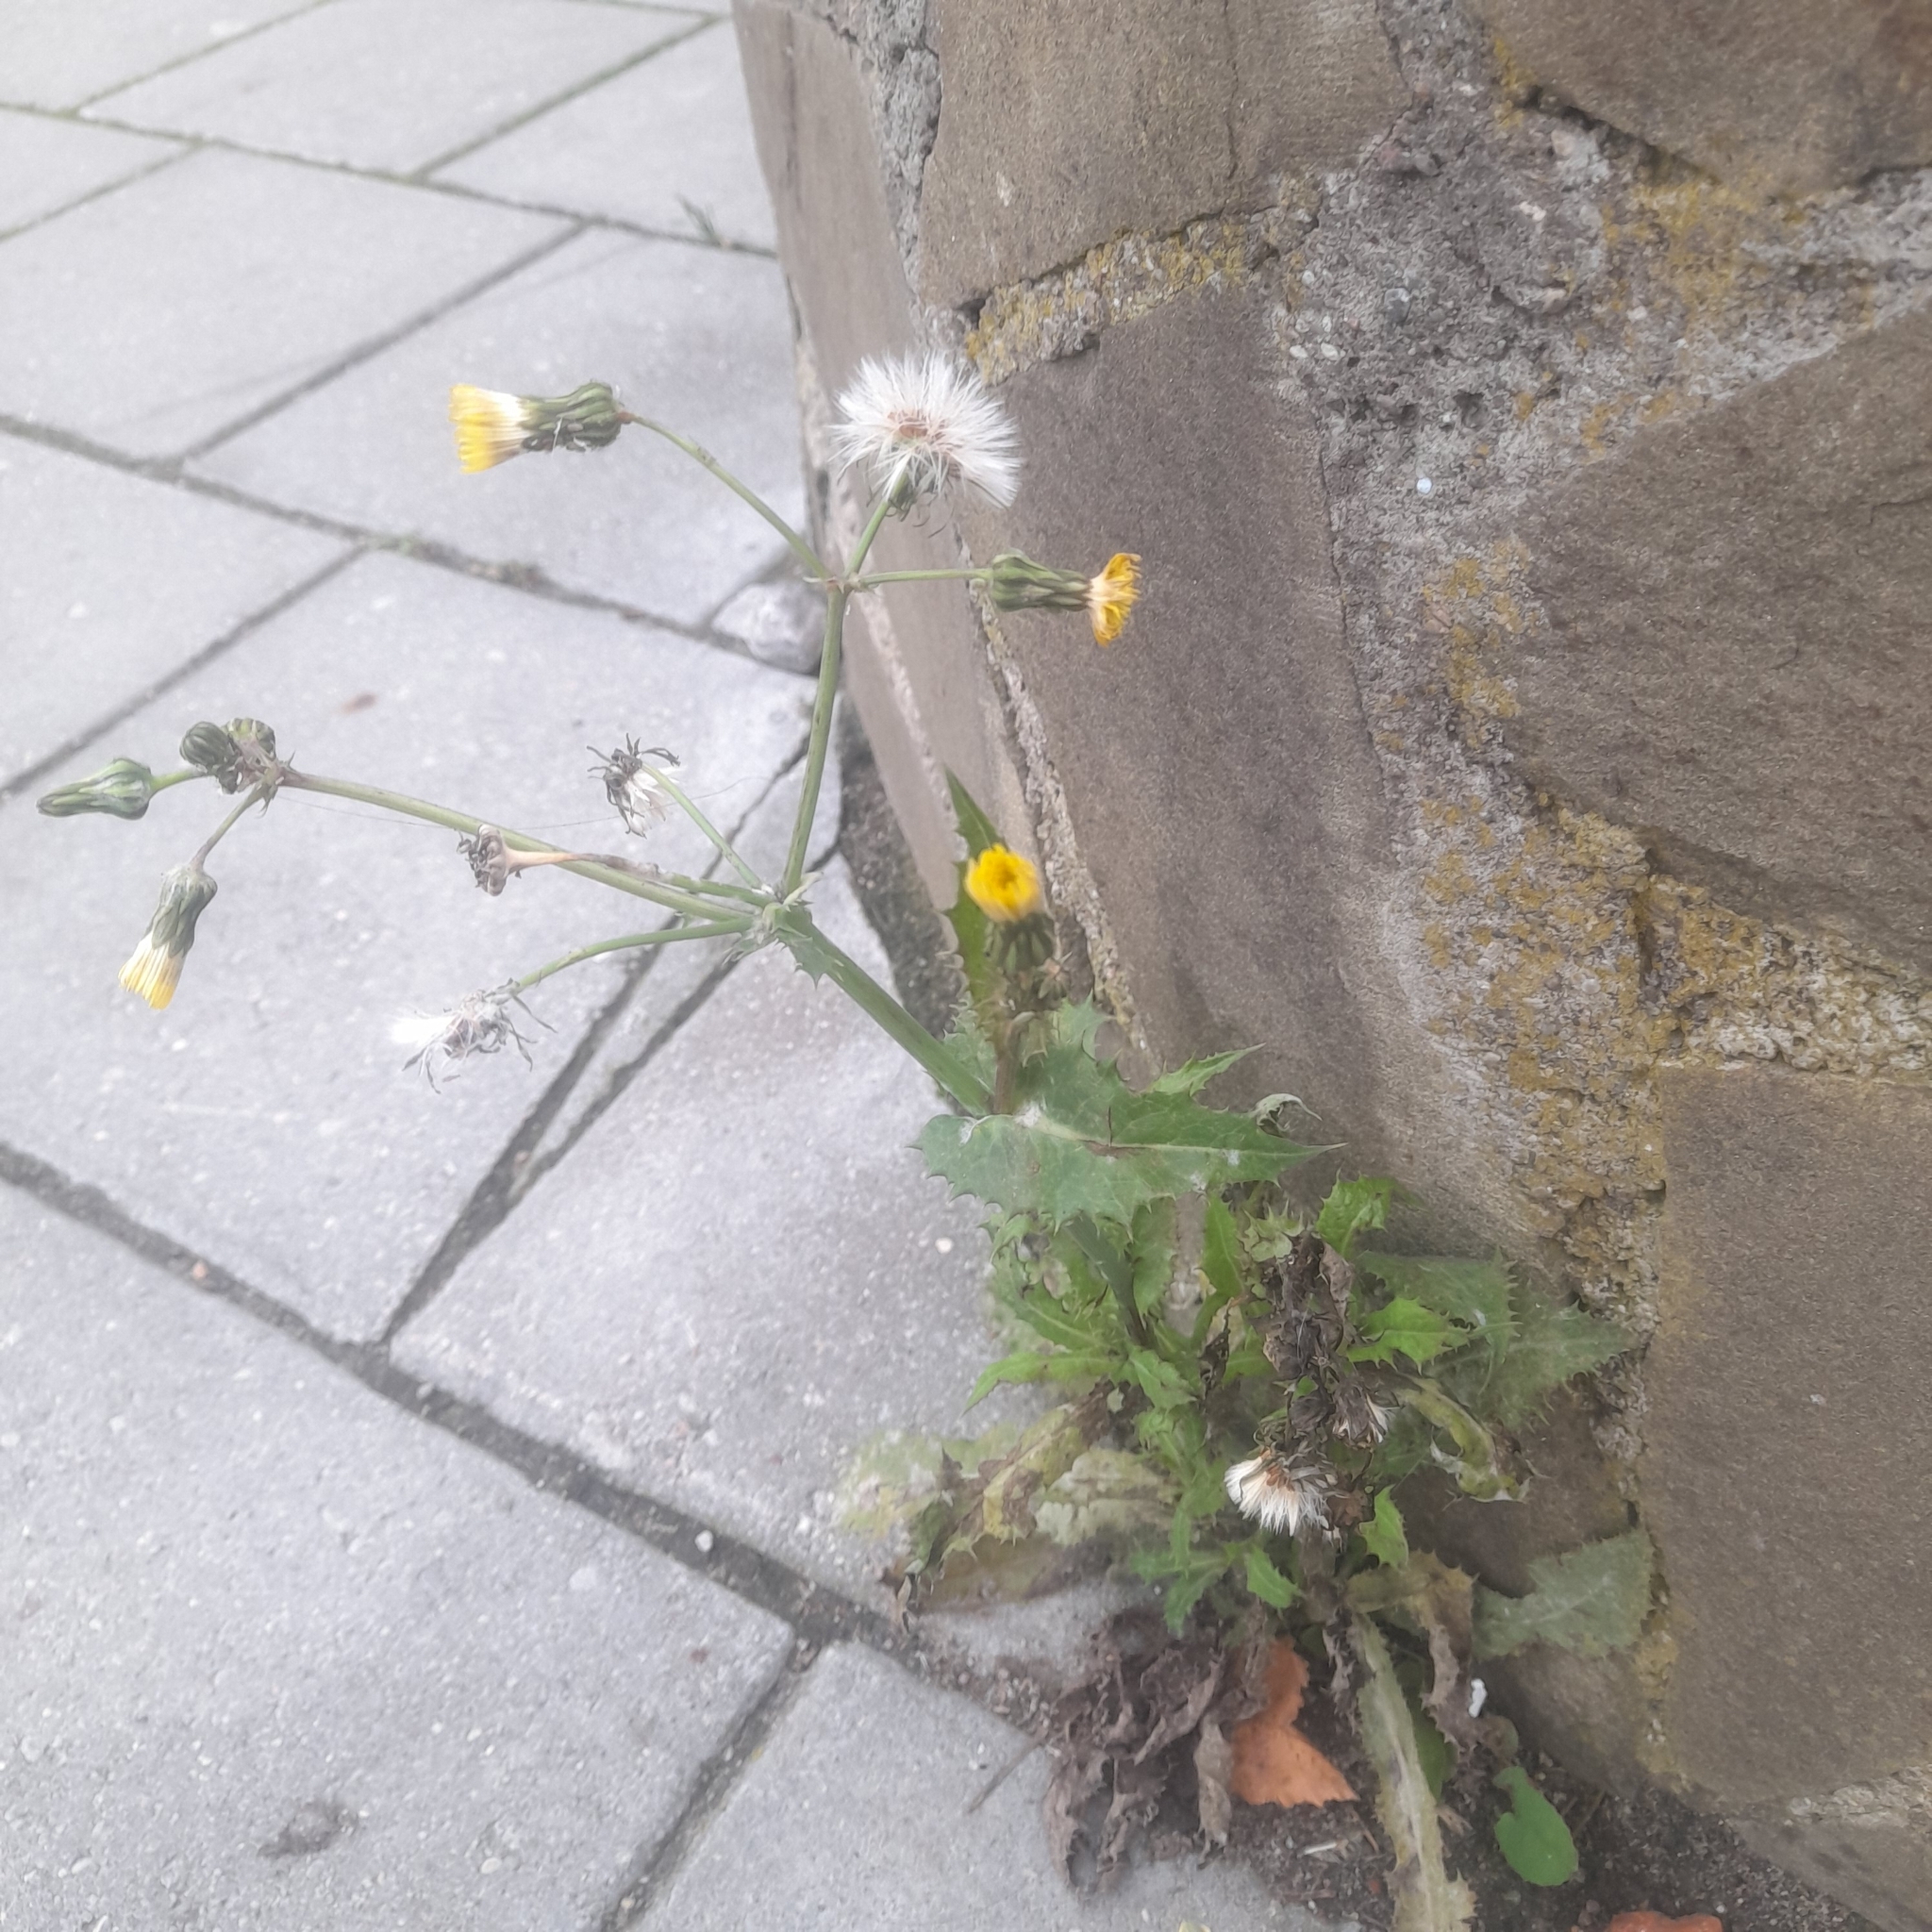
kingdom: Plantae
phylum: Tracheophyta
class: Magnoliopsida
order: Asterales
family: Asteraceae
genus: Sonchus
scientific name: Sonchus asper
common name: Prickly sow-thistle
